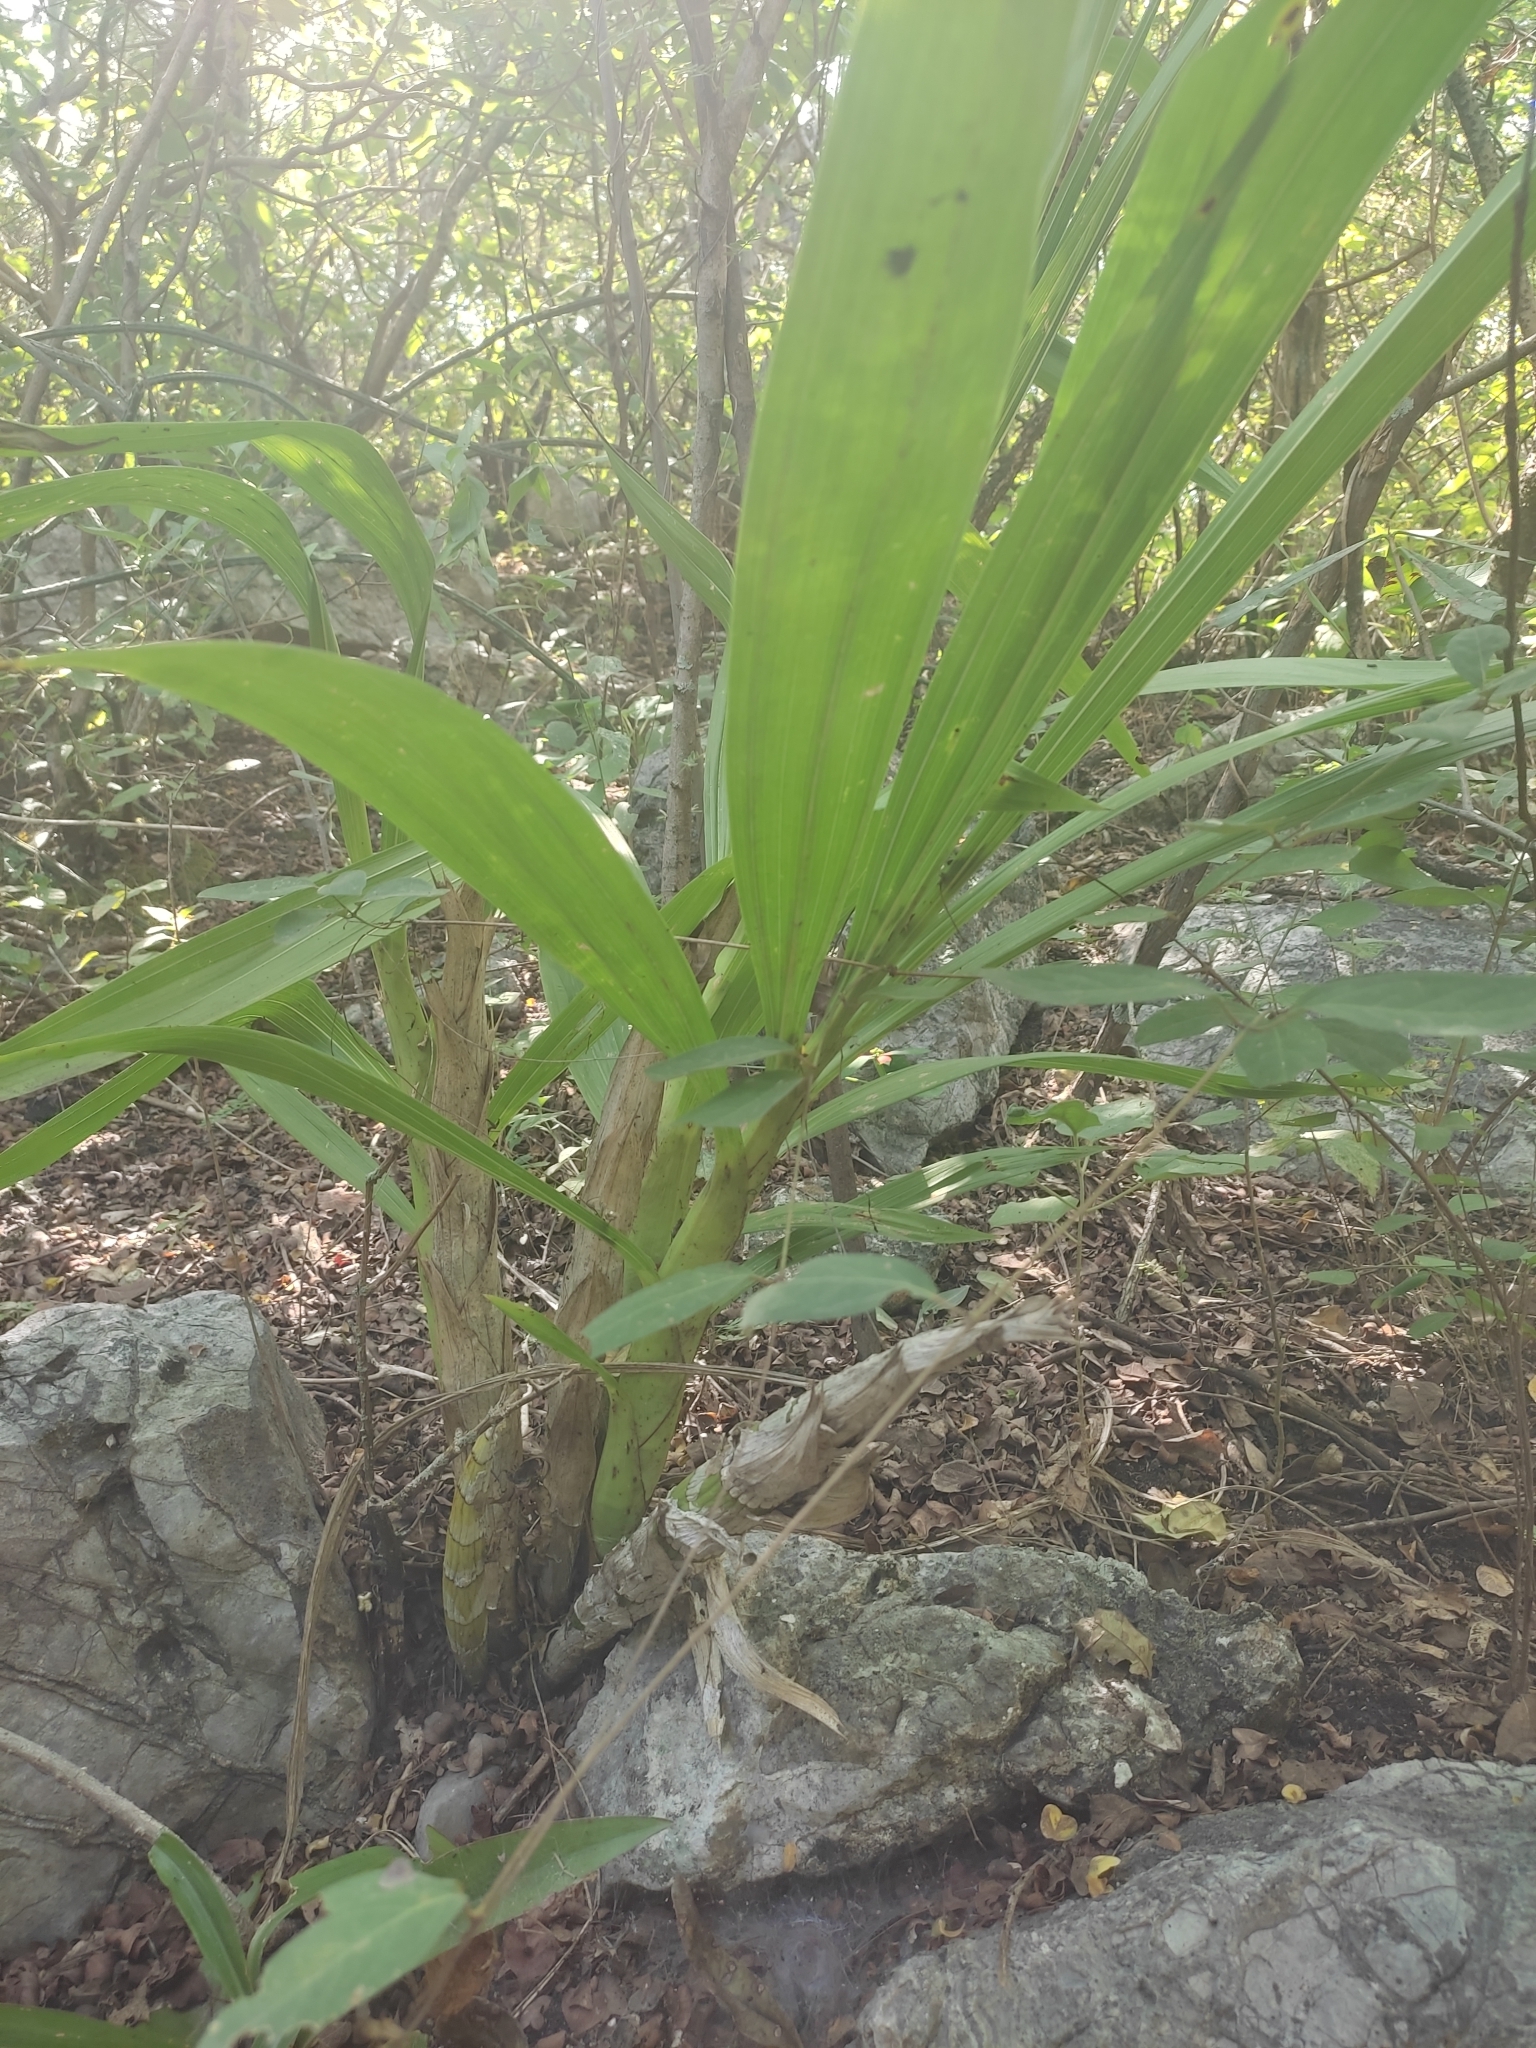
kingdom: Plantae
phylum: Tracheophyta
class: Liliopsida
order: Asparagales
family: Orchidaceae
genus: Cyrtopodium
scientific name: Cyrtopodium macrobulbon
